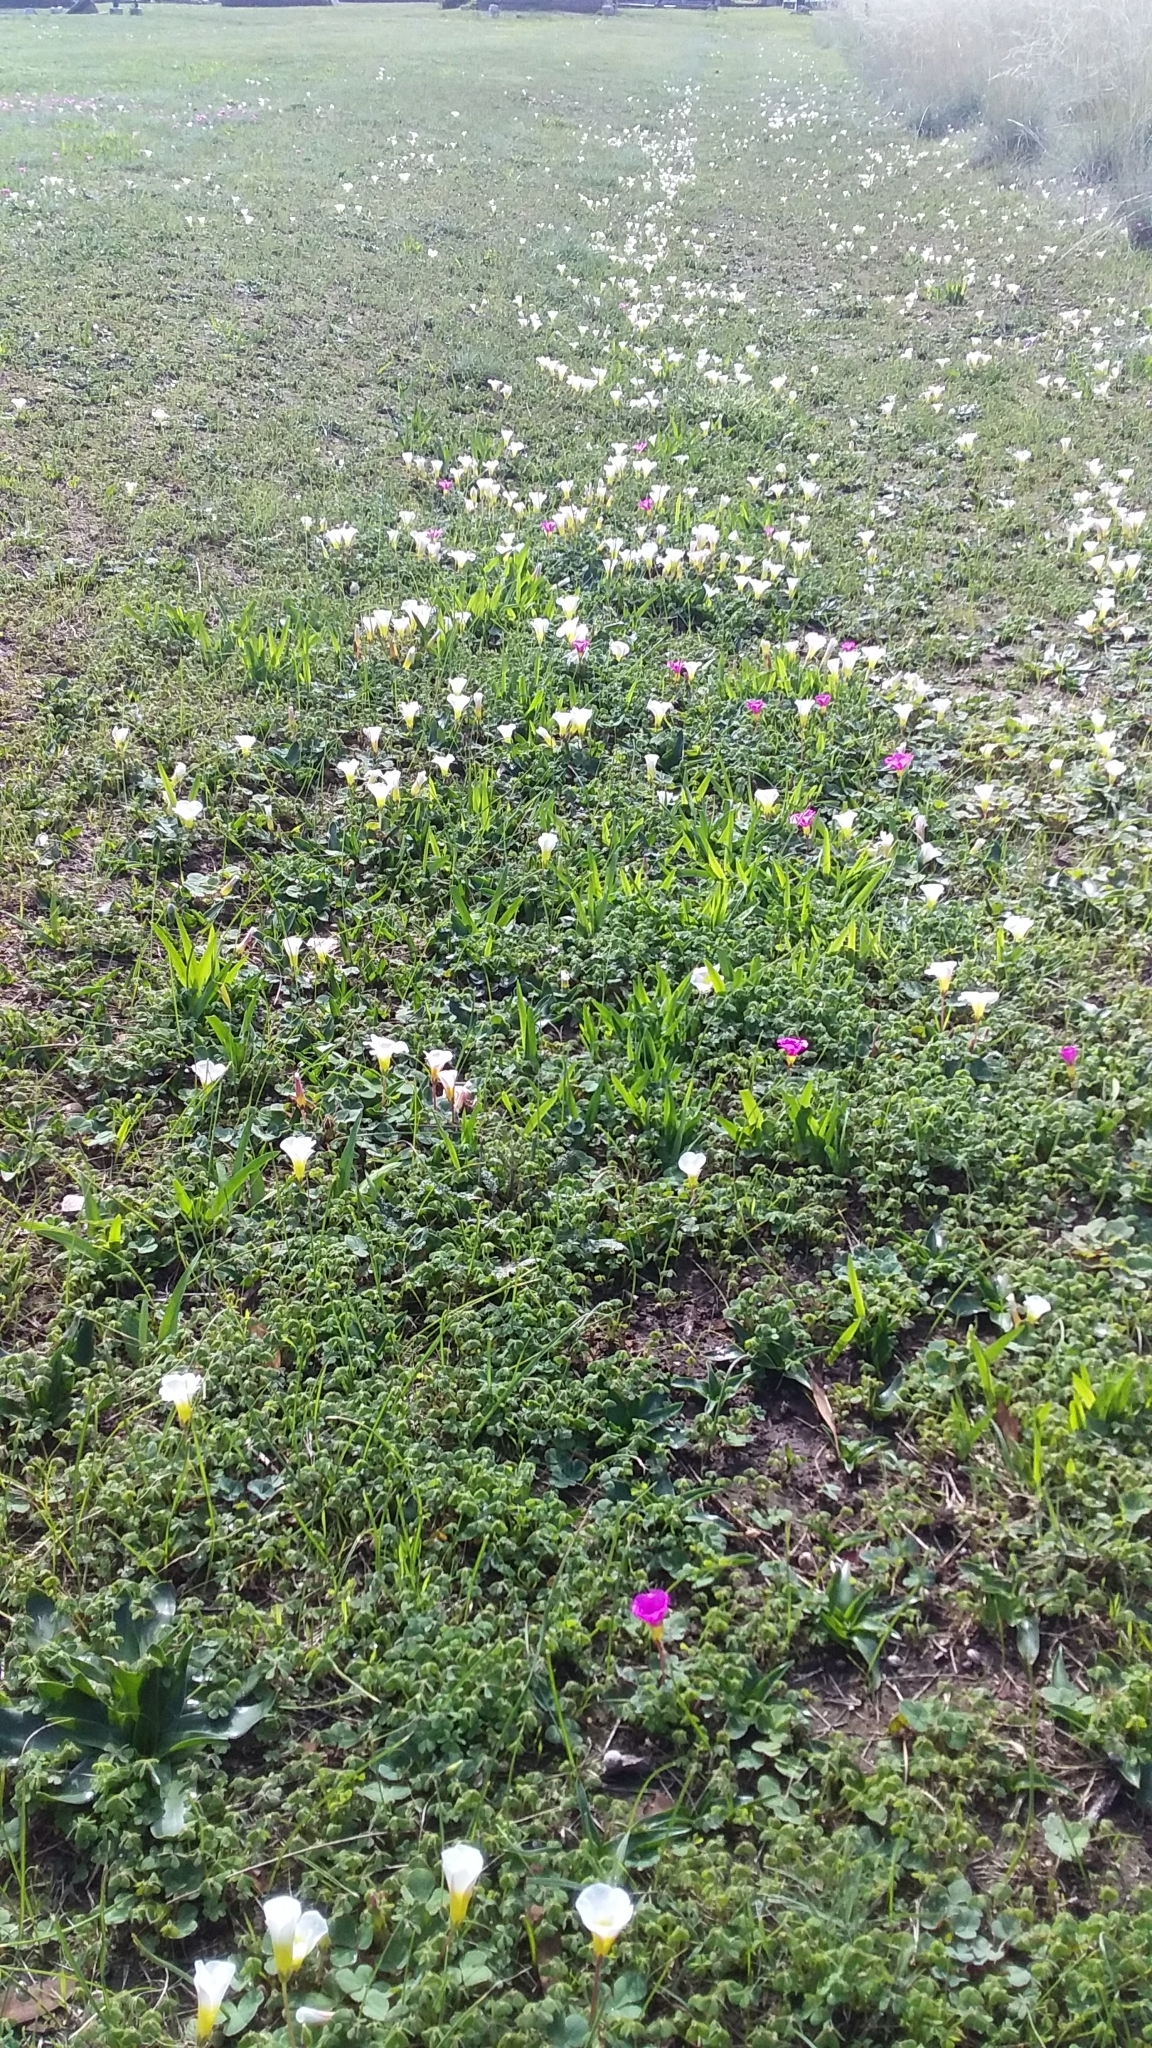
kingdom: Plantae
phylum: Tracheophyta
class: Magnoliopsida
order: Oxalidales
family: Oxalidaceae
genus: Oxalis
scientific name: Oxalis purpurea
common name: Purple woodsorrel
